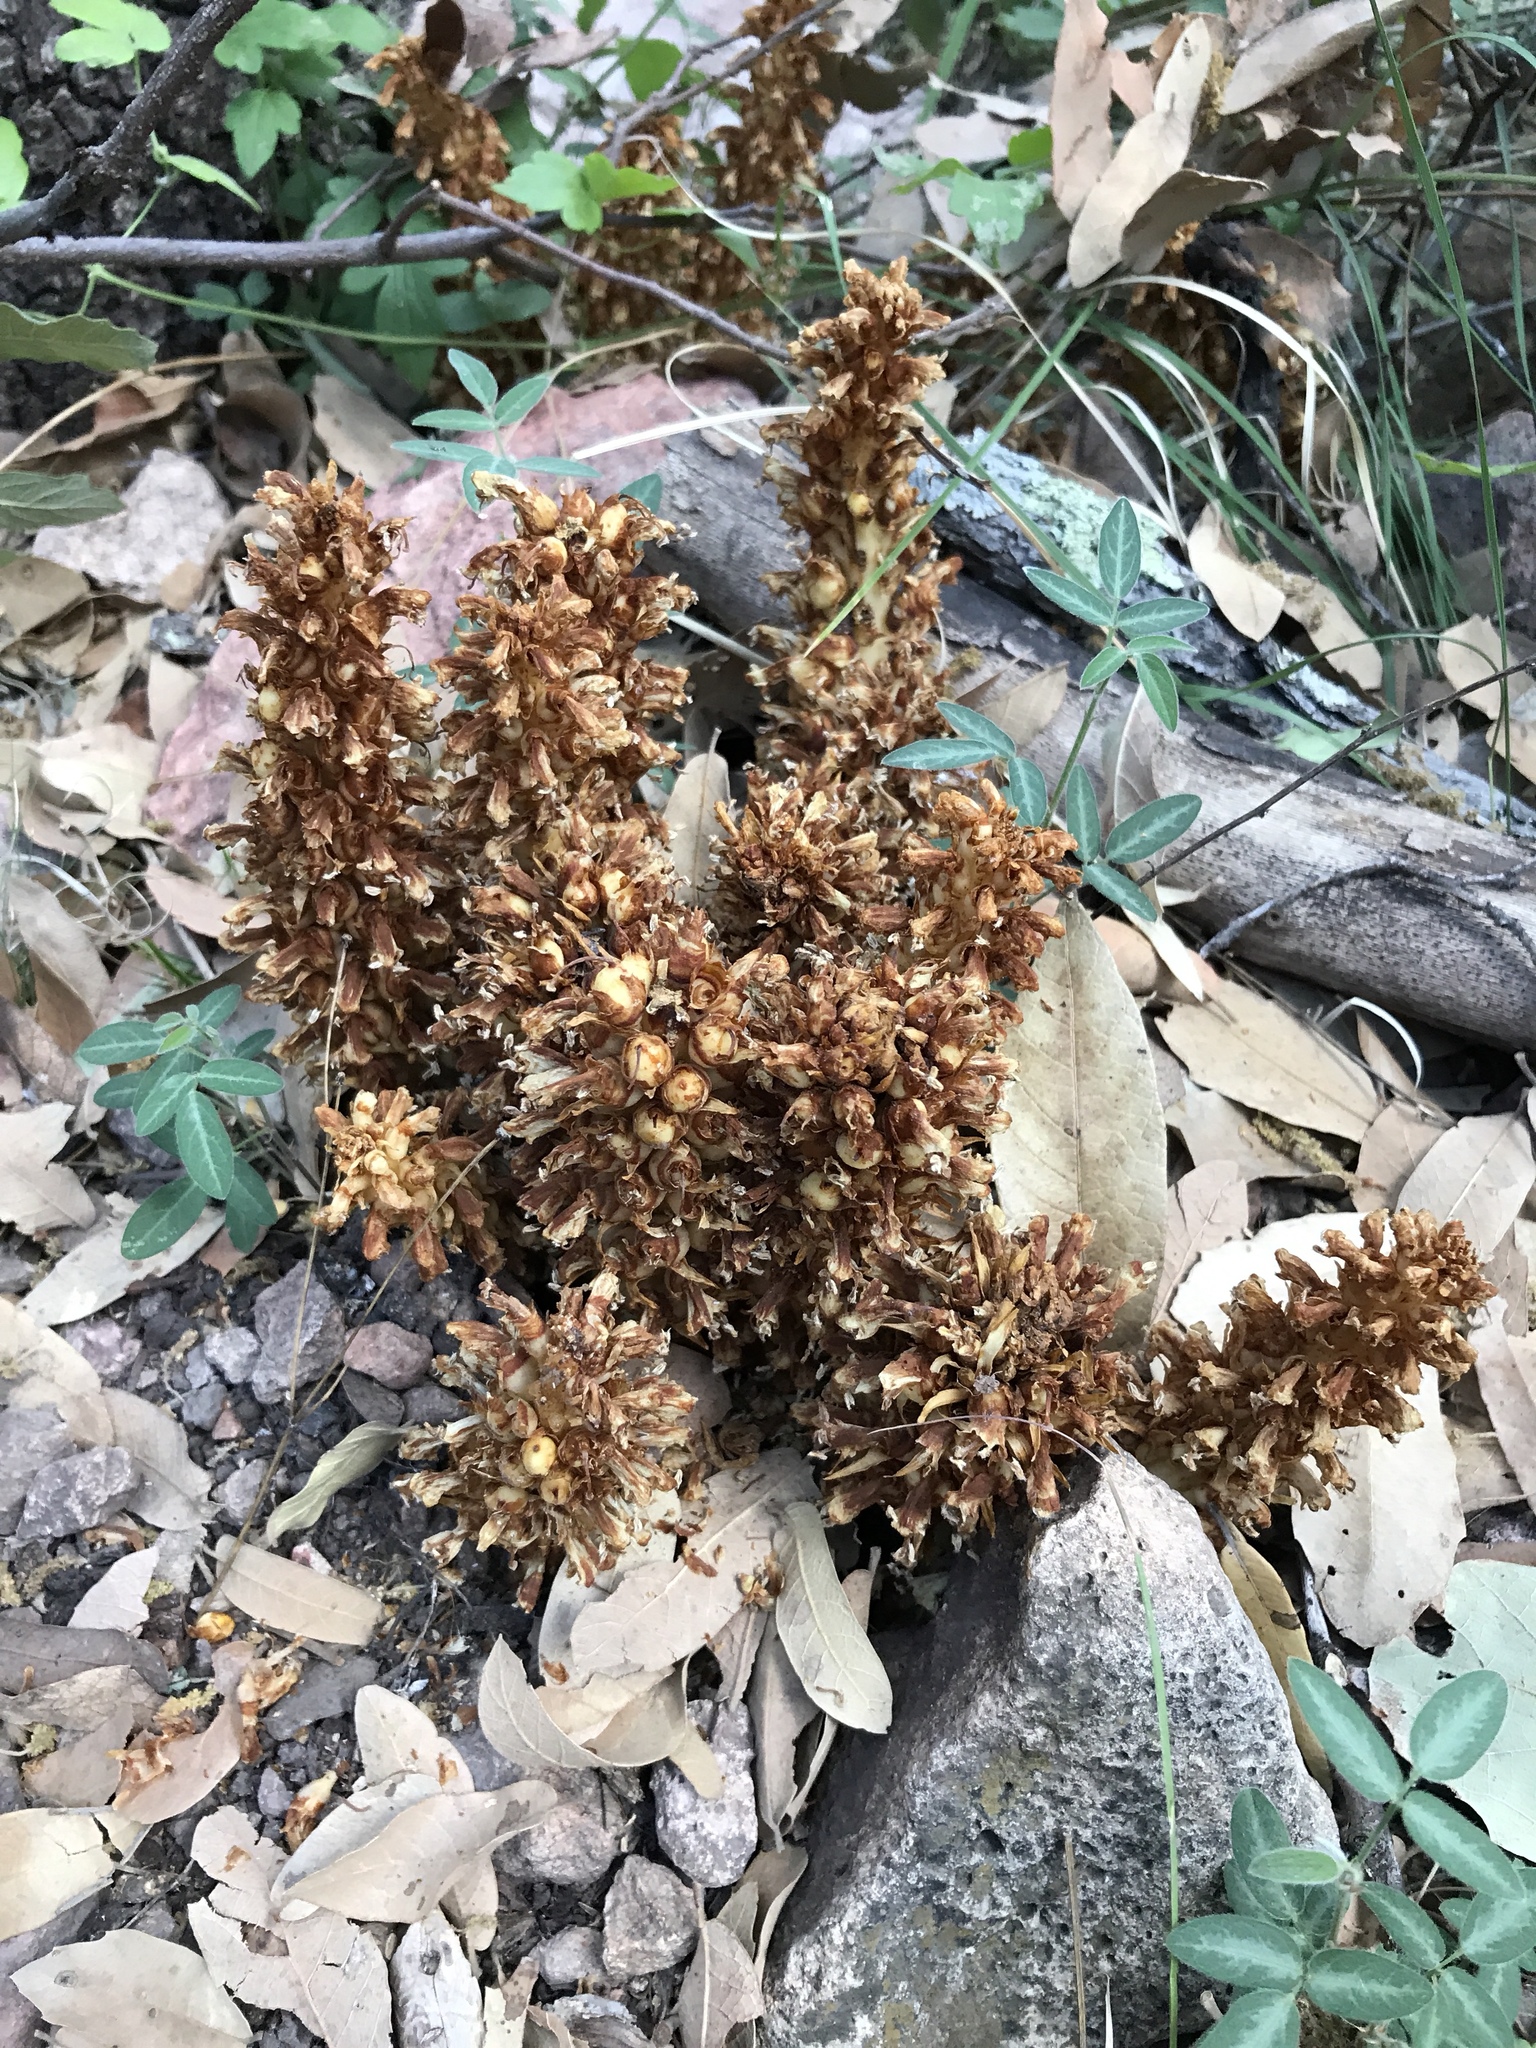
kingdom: Plantae
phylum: Tracheophyta
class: Magnoliopsida
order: Lamiales
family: Orobanchaceae
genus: Conopholis
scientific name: Conopholis alpina
